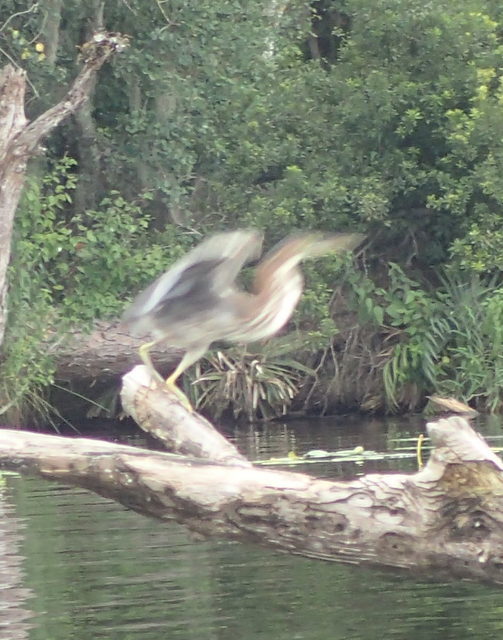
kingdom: Animalia
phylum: Chordata
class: Aves
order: Pelecaniformes
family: Ardeidae
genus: Butorides
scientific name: Butorides virescens
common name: Green heron
